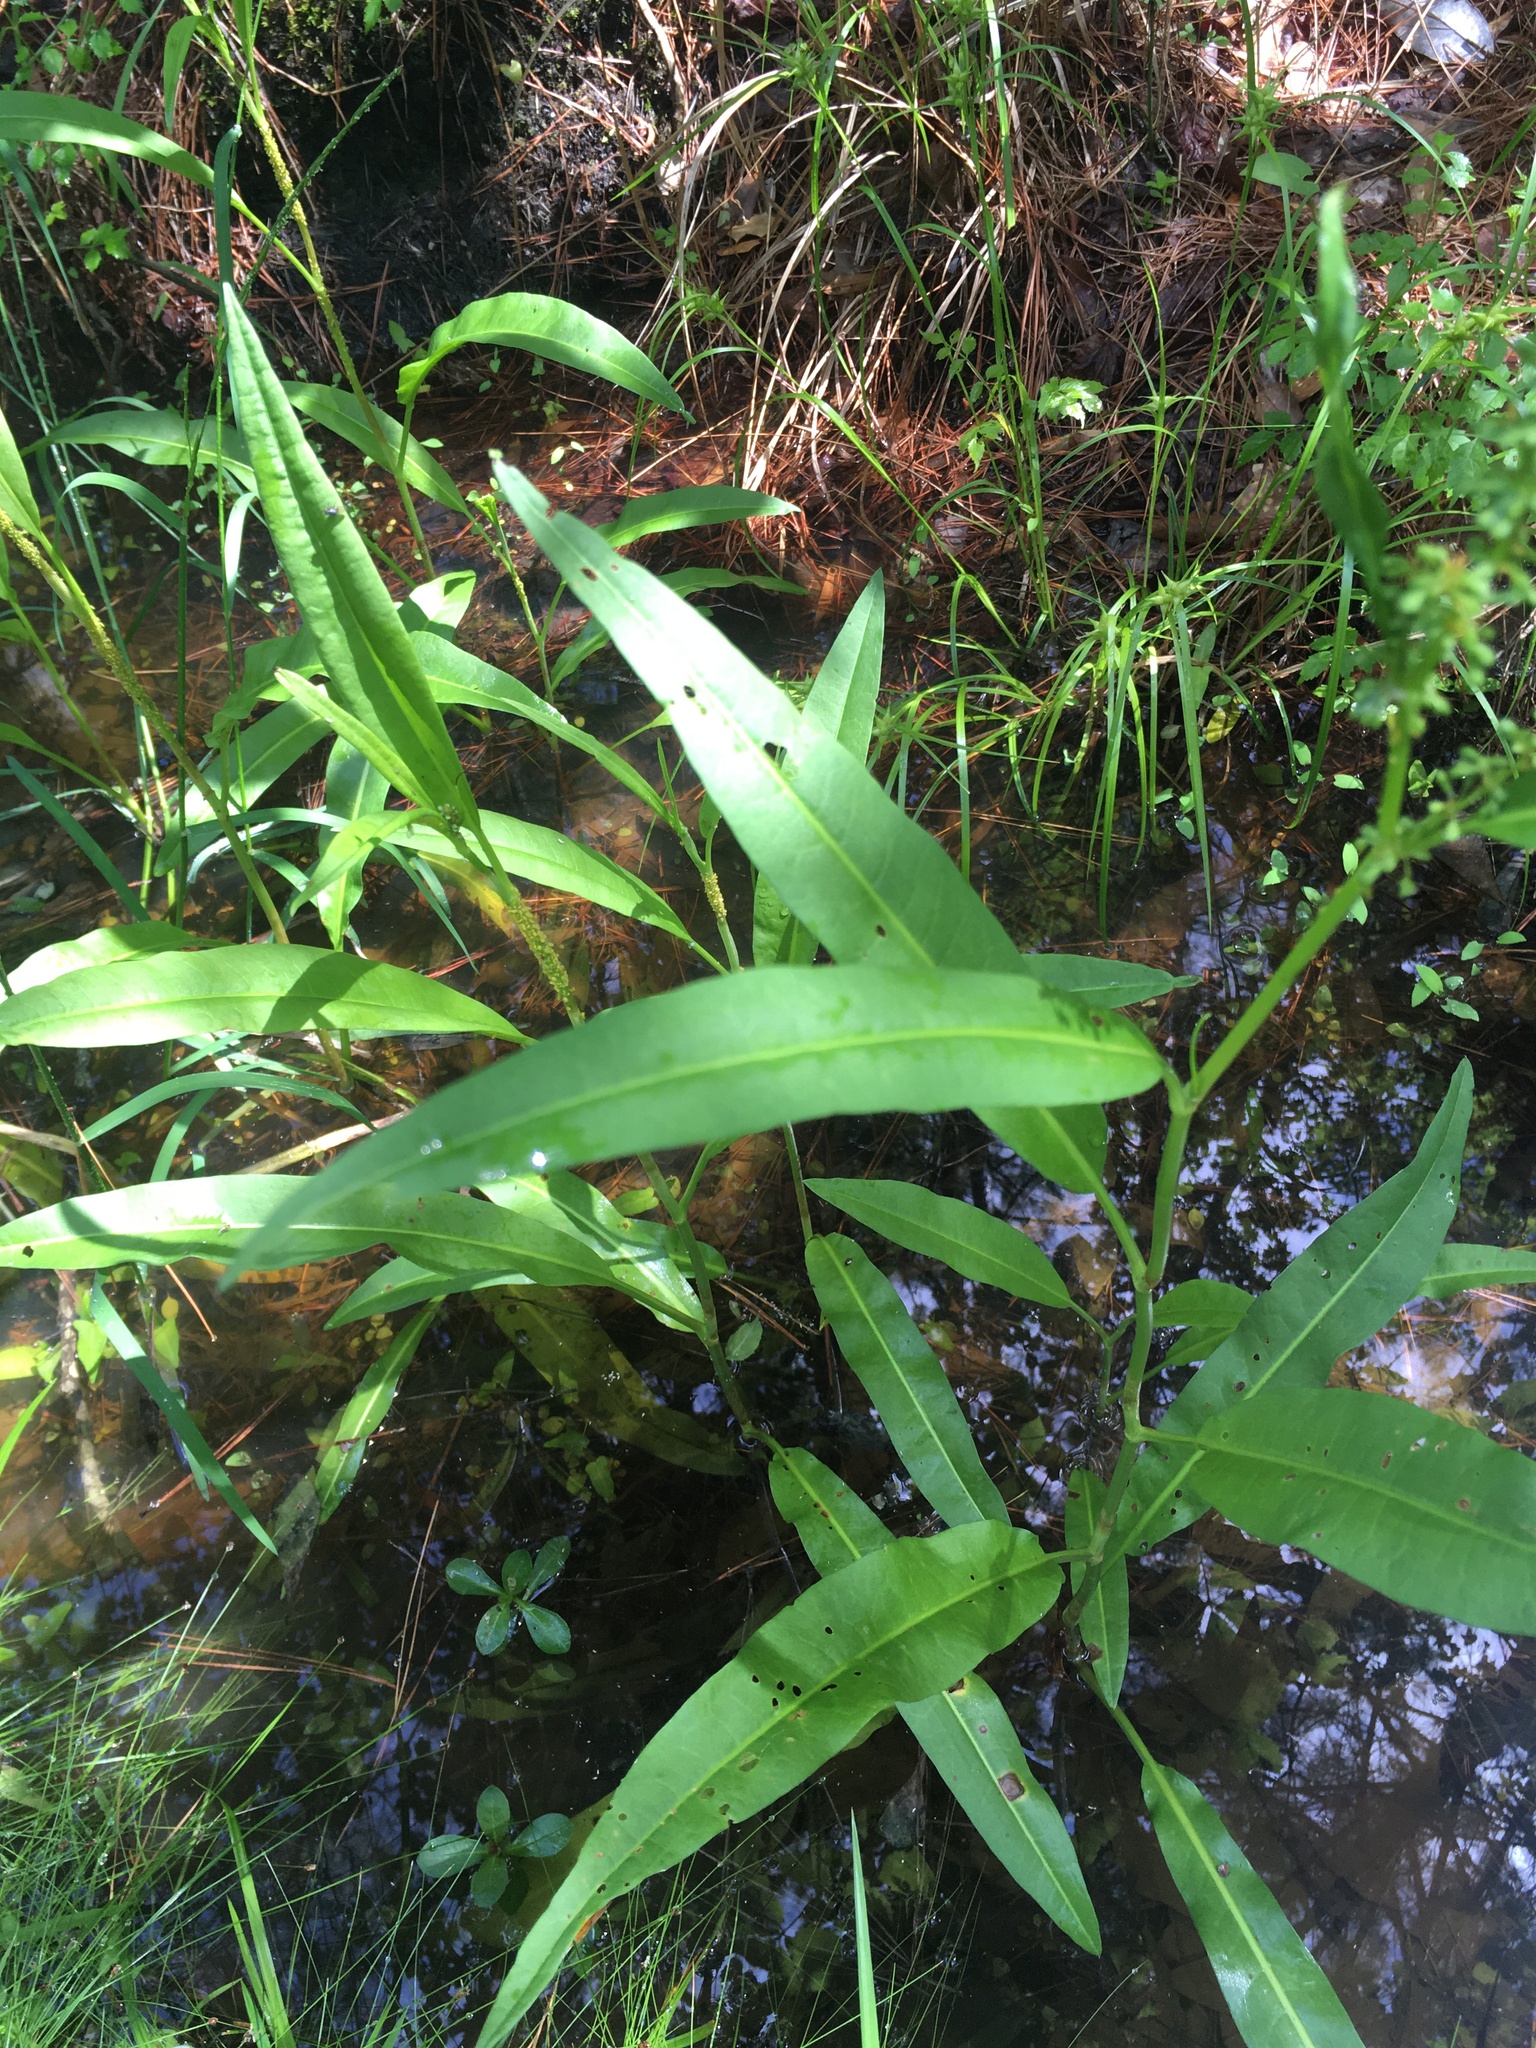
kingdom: Plantae
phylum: Tracheophyta
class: Magnoliopsida
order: Caryophyllales
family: Polygonaceae
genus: Rumex
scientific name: Rumex verticillatus
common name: Swamp dock
